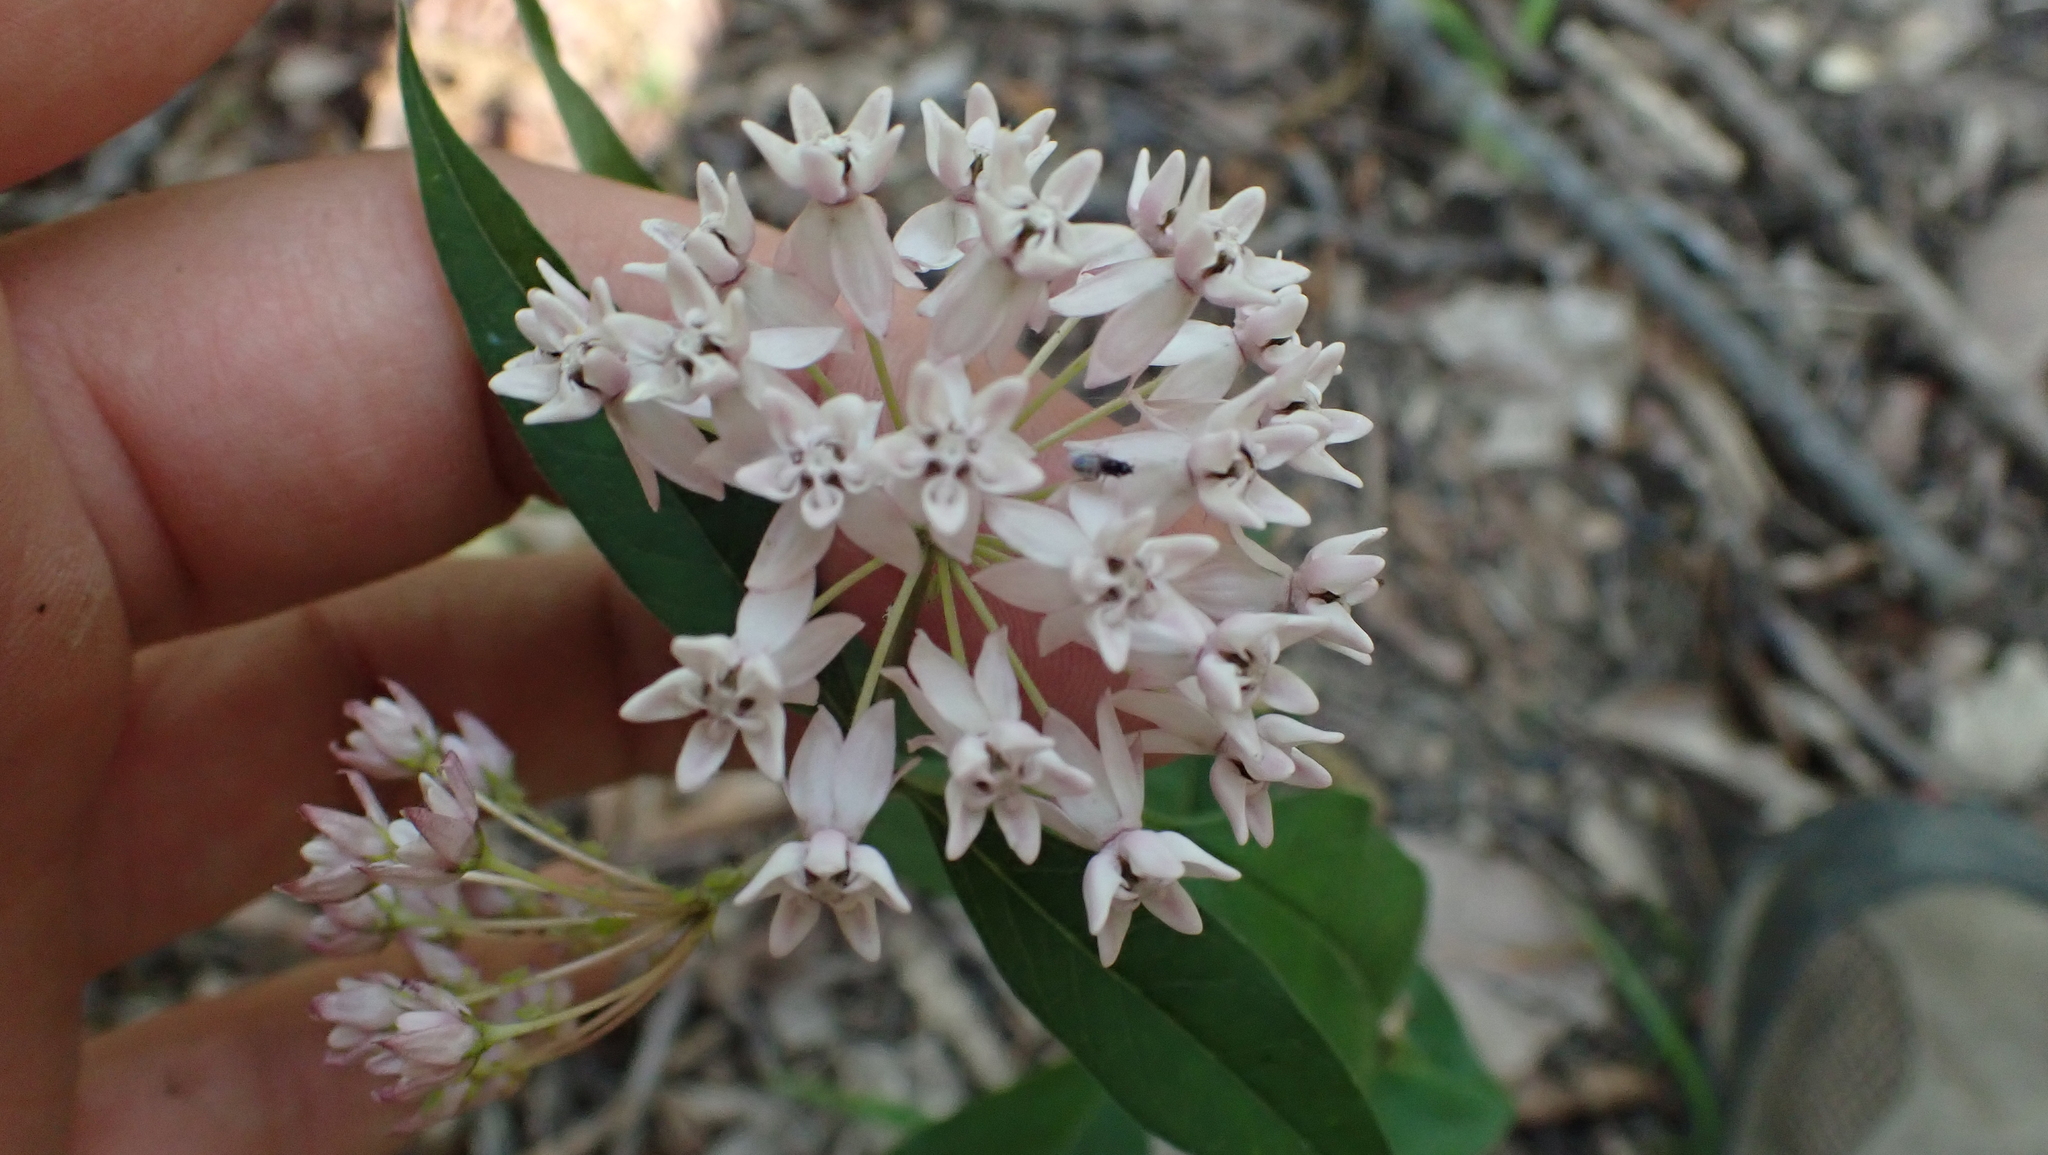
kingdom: Plantae
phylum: Tracheophyta
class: Magnoliopsida
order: Gentianales
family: Apocynaceae
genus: Asclepias
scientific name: Asclepias quadrifolia
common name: Whorled milkweed
